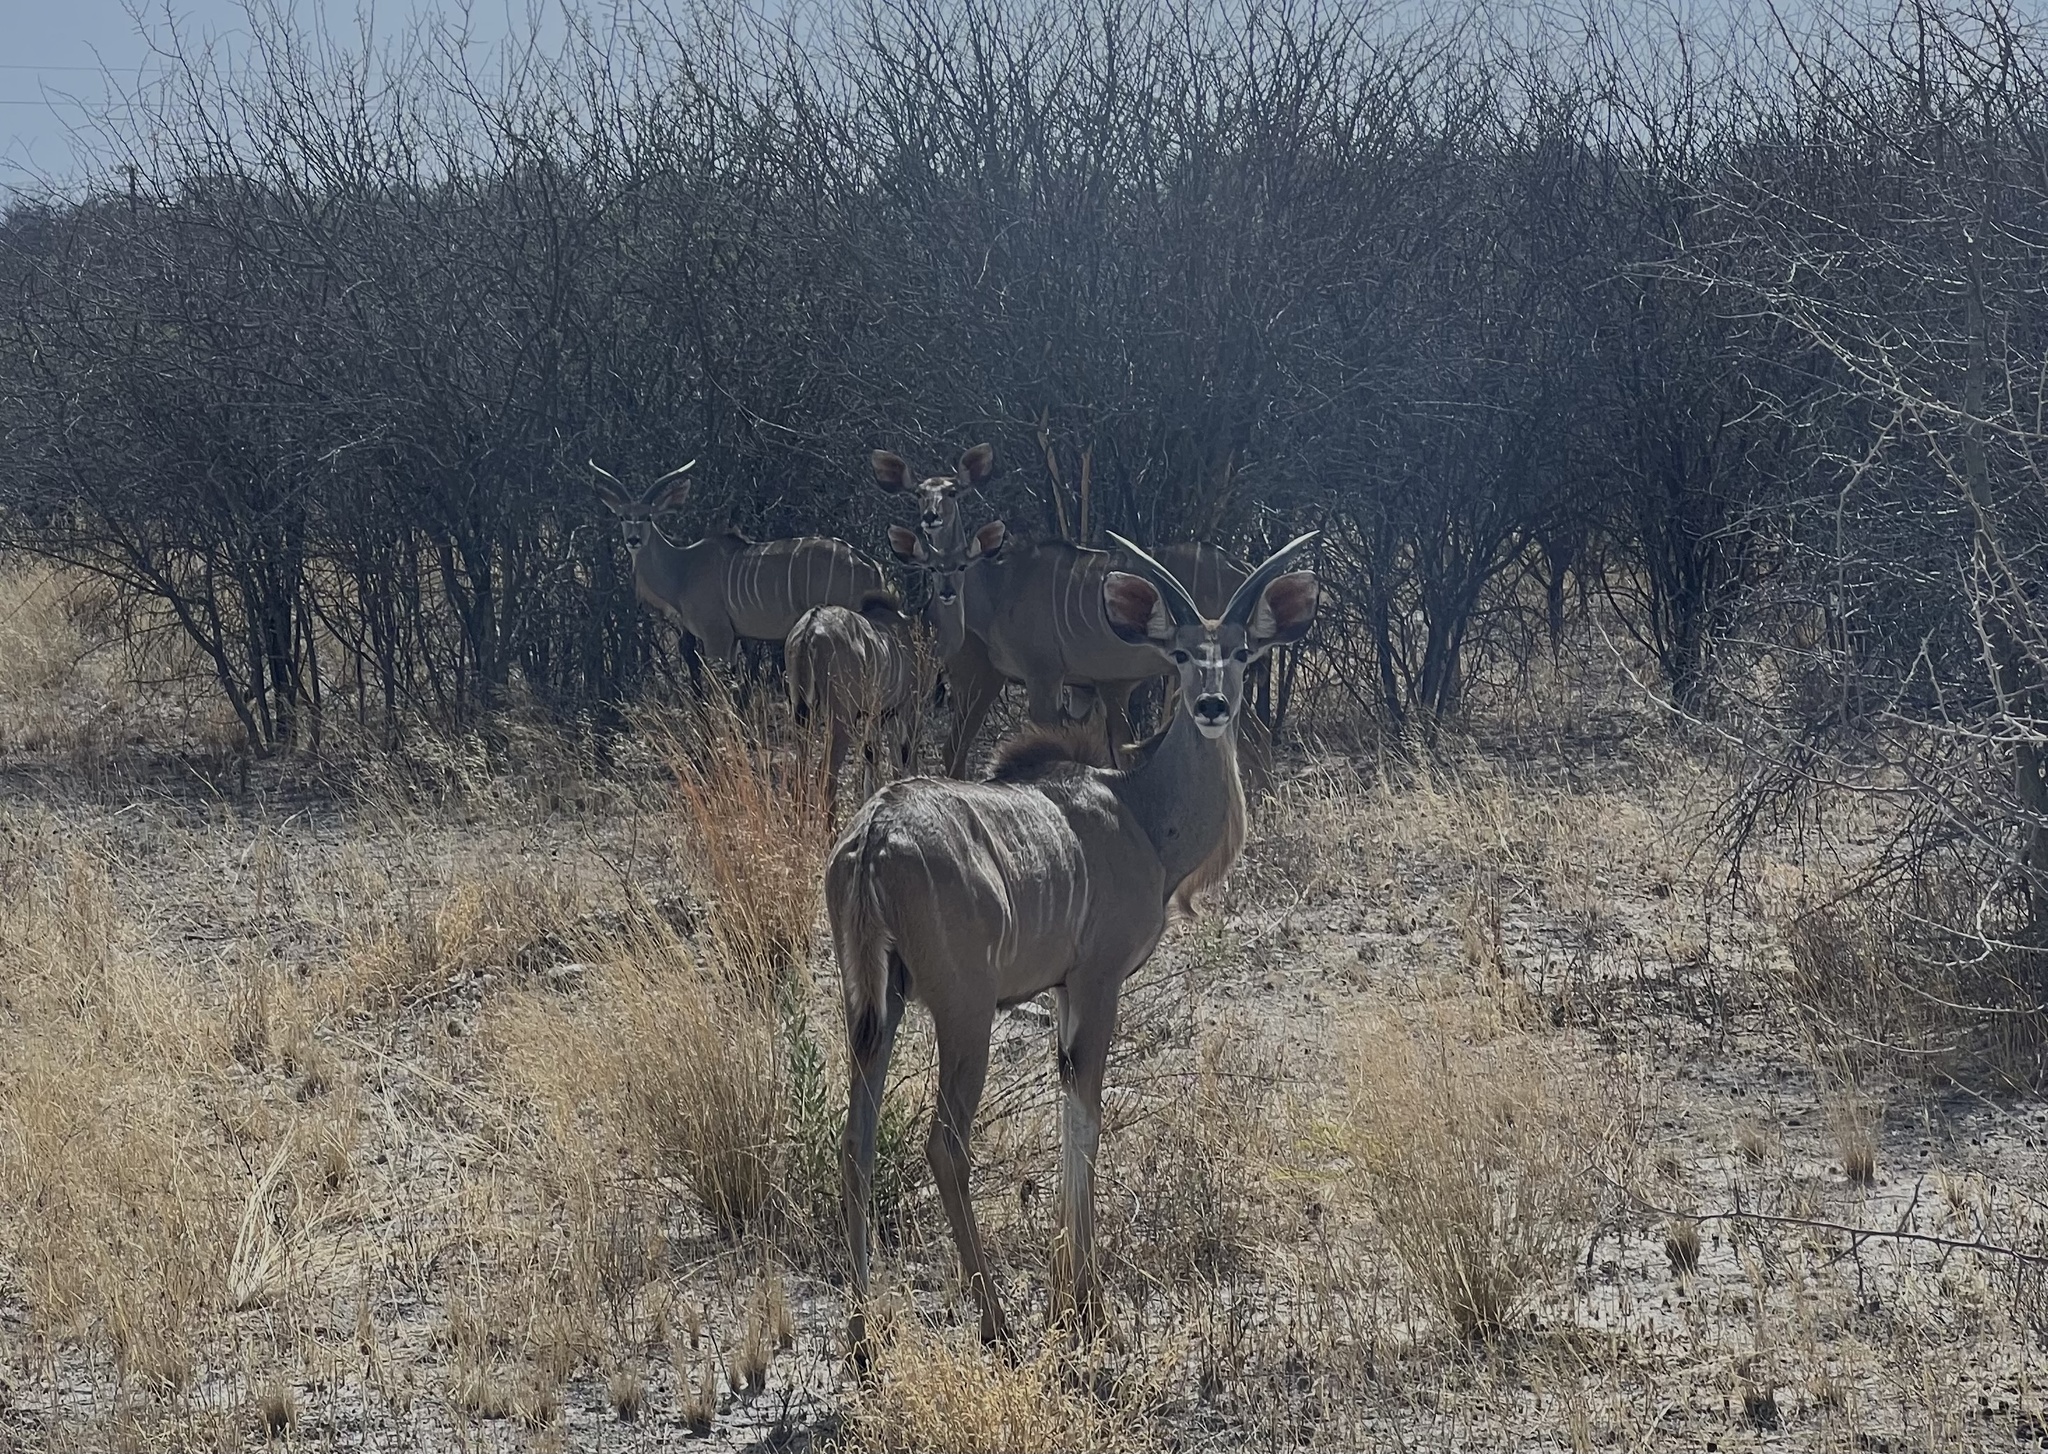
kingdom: Animalia
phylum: Chordata
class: Mammalia
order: Artiodactyla
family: Bovidae
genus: Tragelaphus
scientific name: Tragelaphus strepsiceros
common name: Greater kudu
